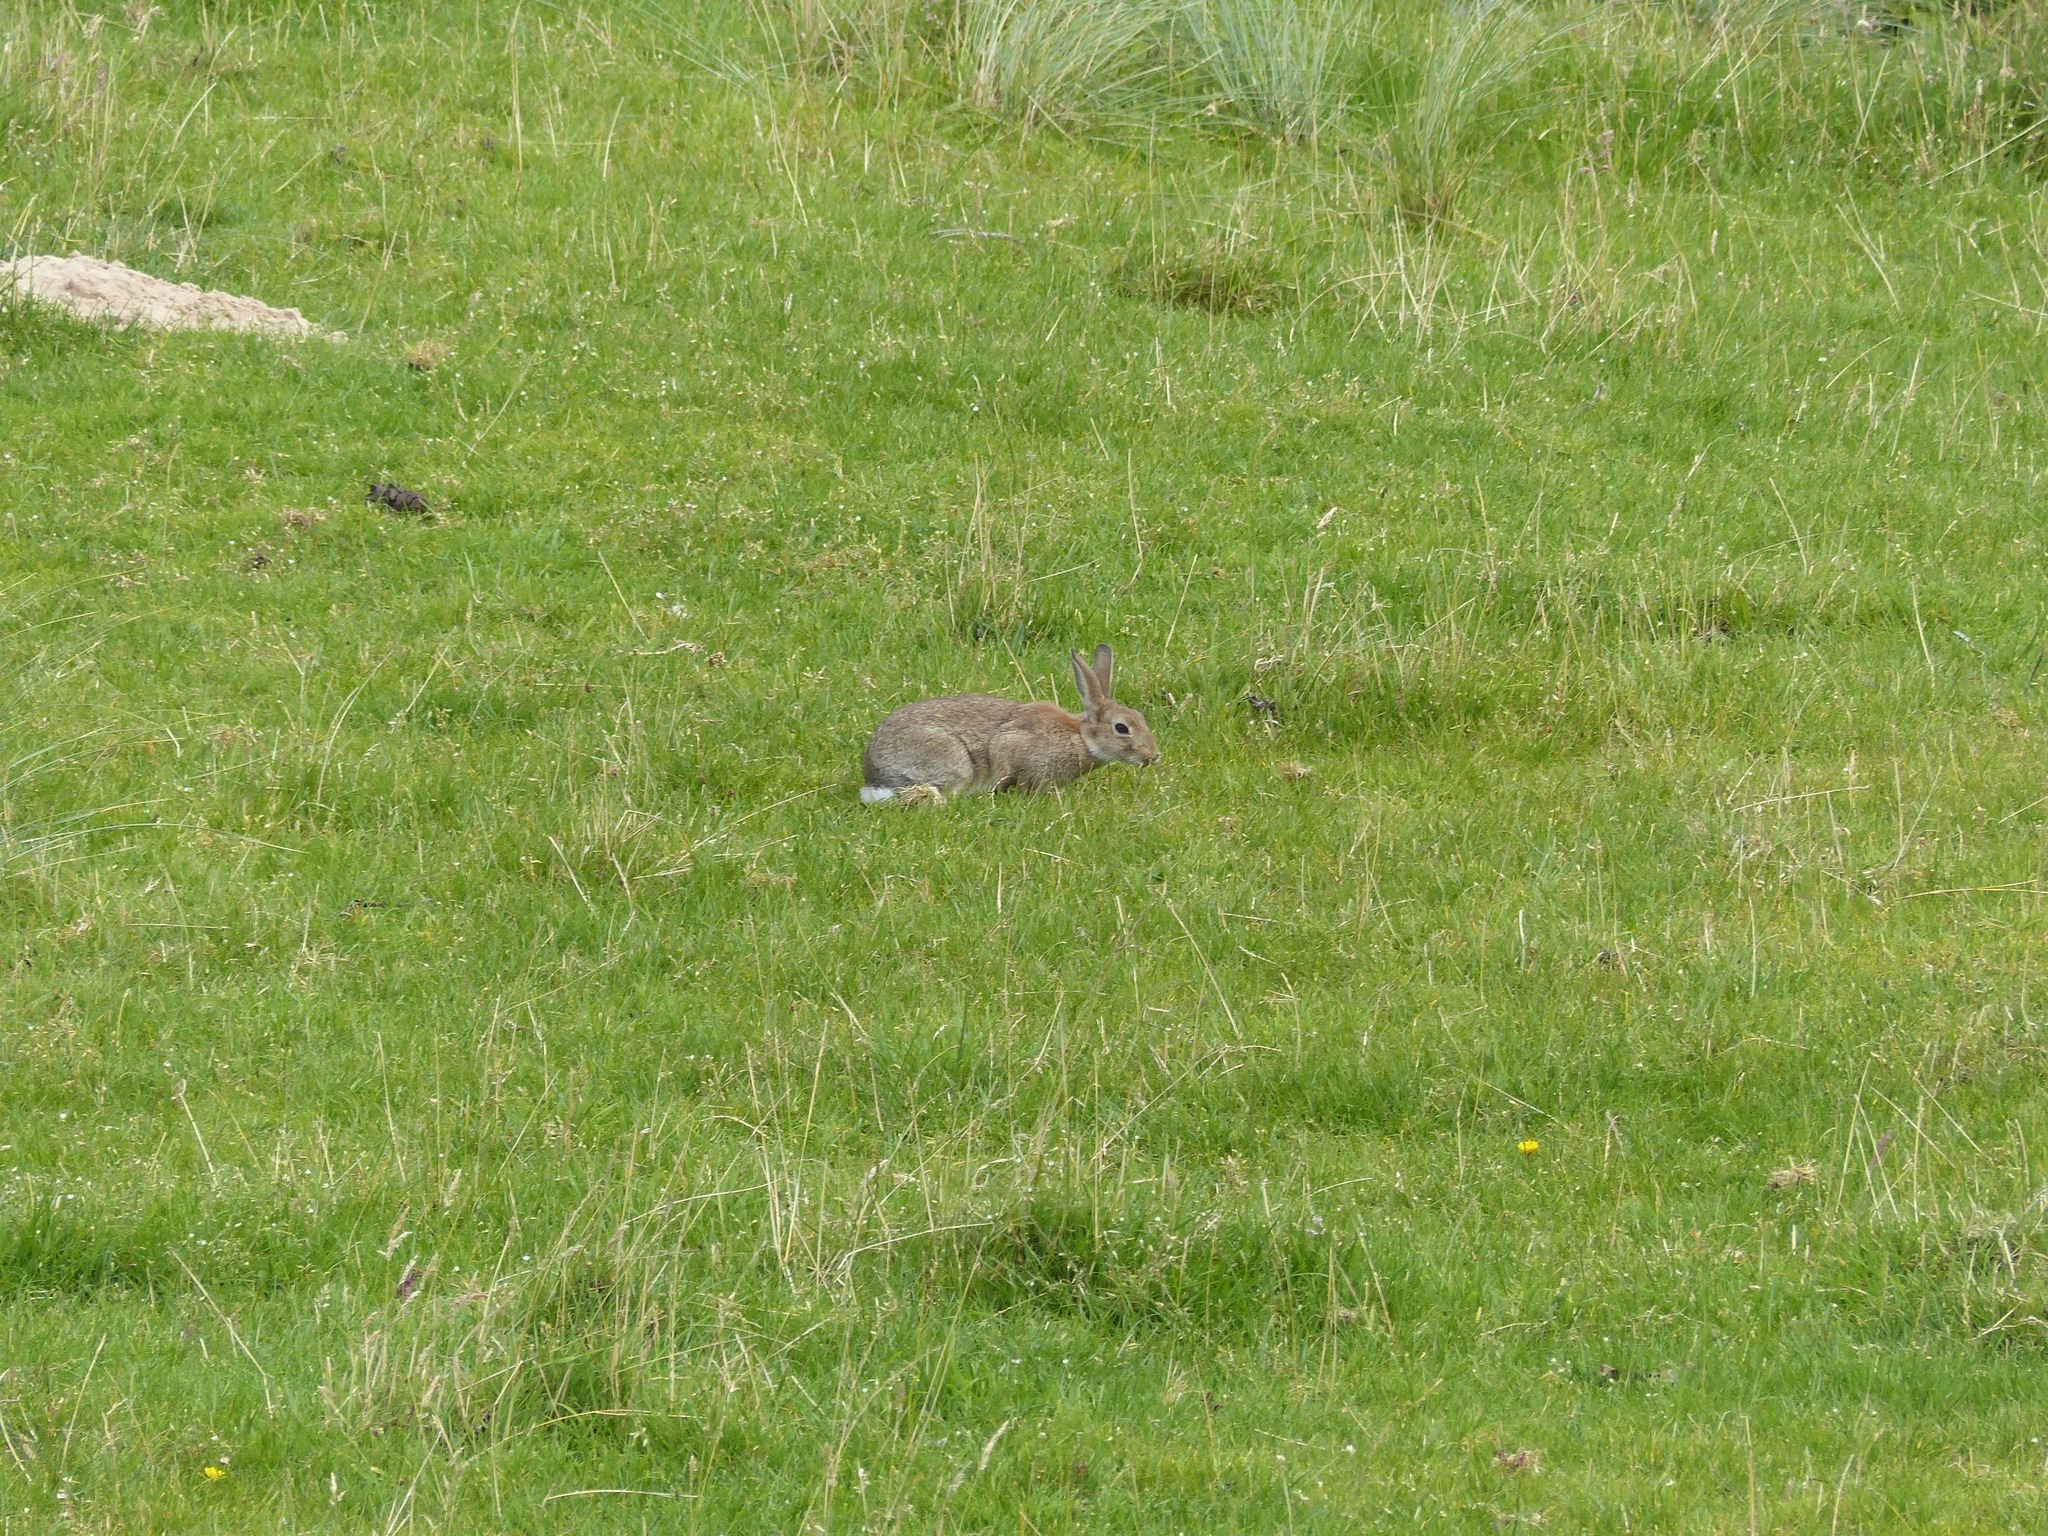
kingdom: Animalia
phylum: Chordata
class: Mammalia
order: Lagomorpha
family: Leporidae
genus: Oryctolagus
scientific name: Oryctolagus cuniculus
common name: European rabbit
